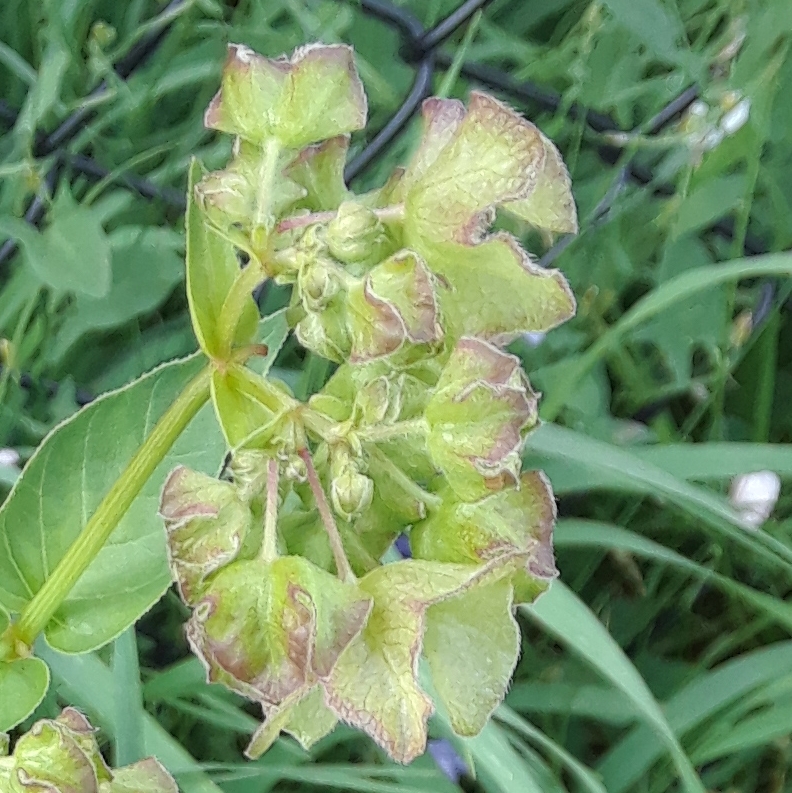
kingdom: Plantae
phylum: Tracheophyta
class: Magnoliopsida
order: Caryophyllales
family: Nyctaginaceae
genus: Mirabilis
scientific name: Mirabilis nyctaginea
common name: Umbrella wort
